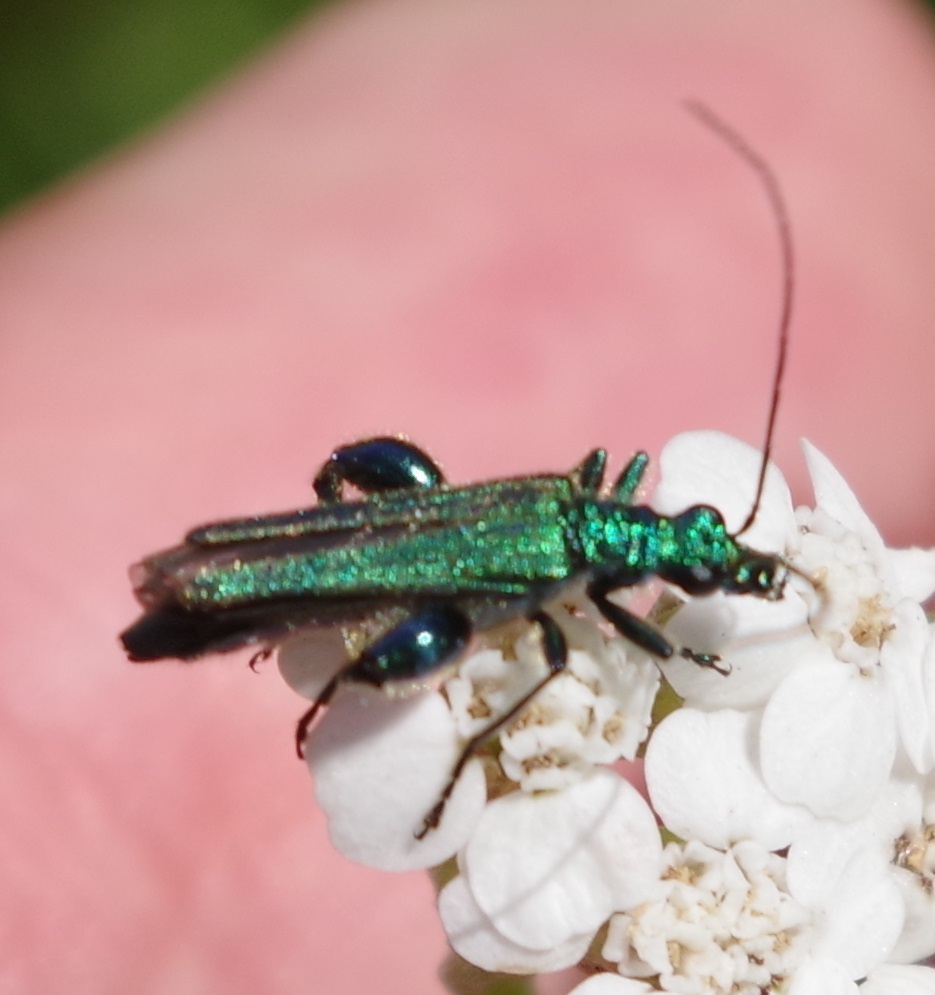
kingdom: Animalia
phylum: Arthropoda
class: Insecta
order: Coleoptera
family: Oedemeridae
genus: Oedemera
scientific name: Oedemera nobilis
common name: Swollen-thighed beetle
